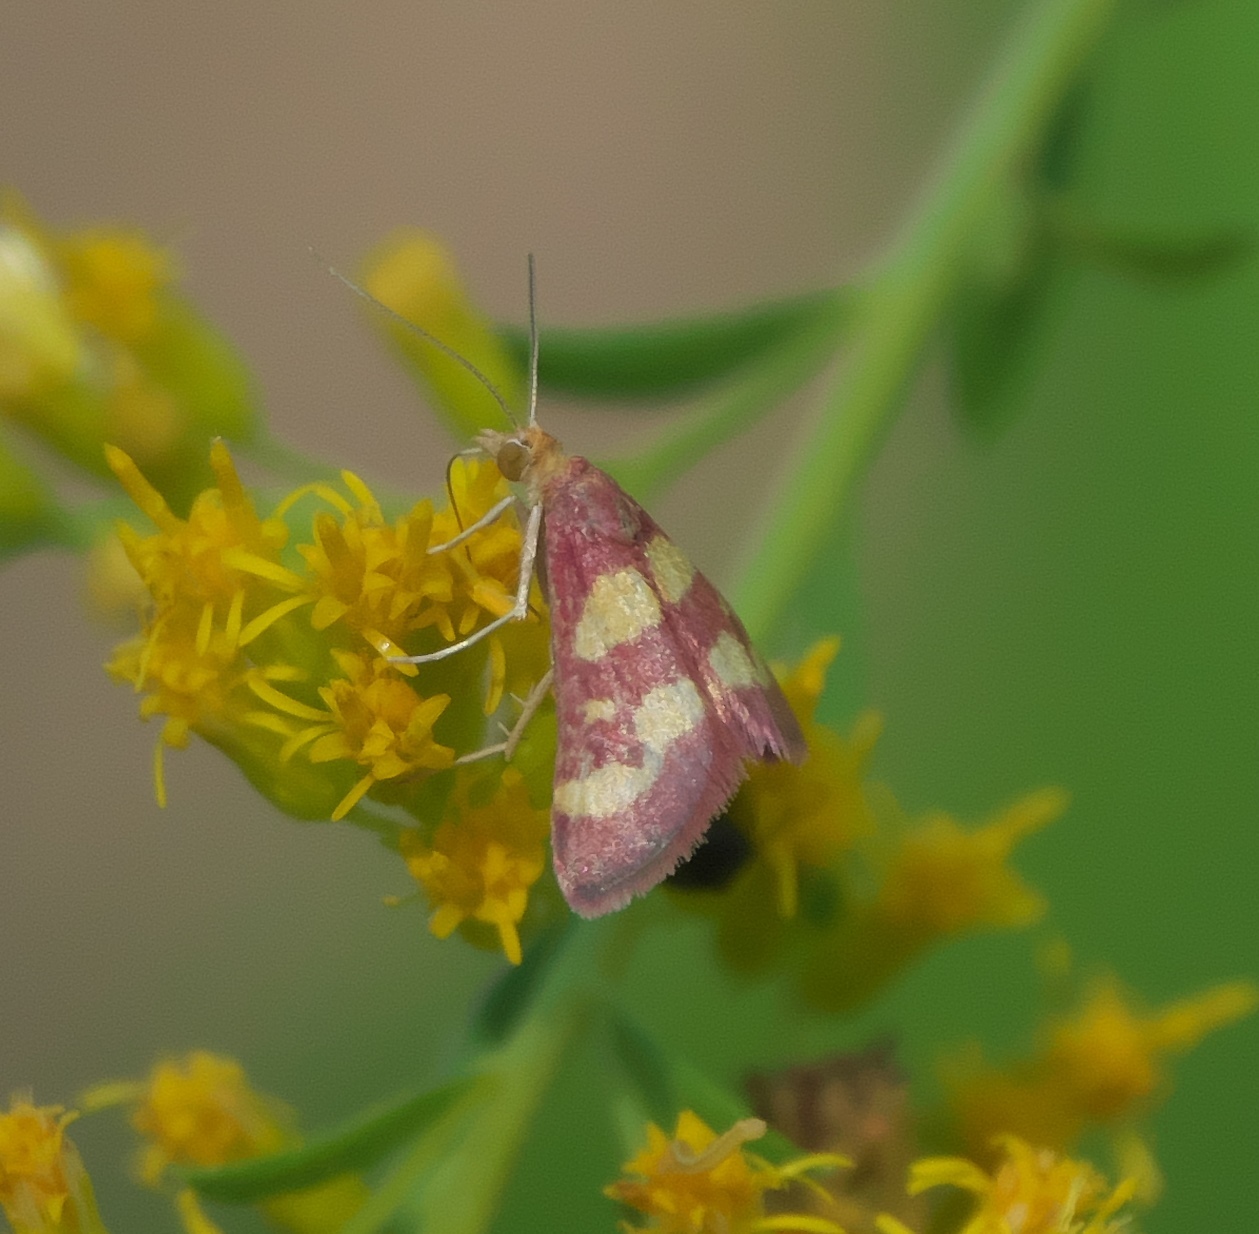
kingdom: Animalia
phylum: Arthropoda
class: Insecta
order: Lepidoptera
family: Crambidae
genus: Pyrausta
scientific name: Pyrausta tyralis
